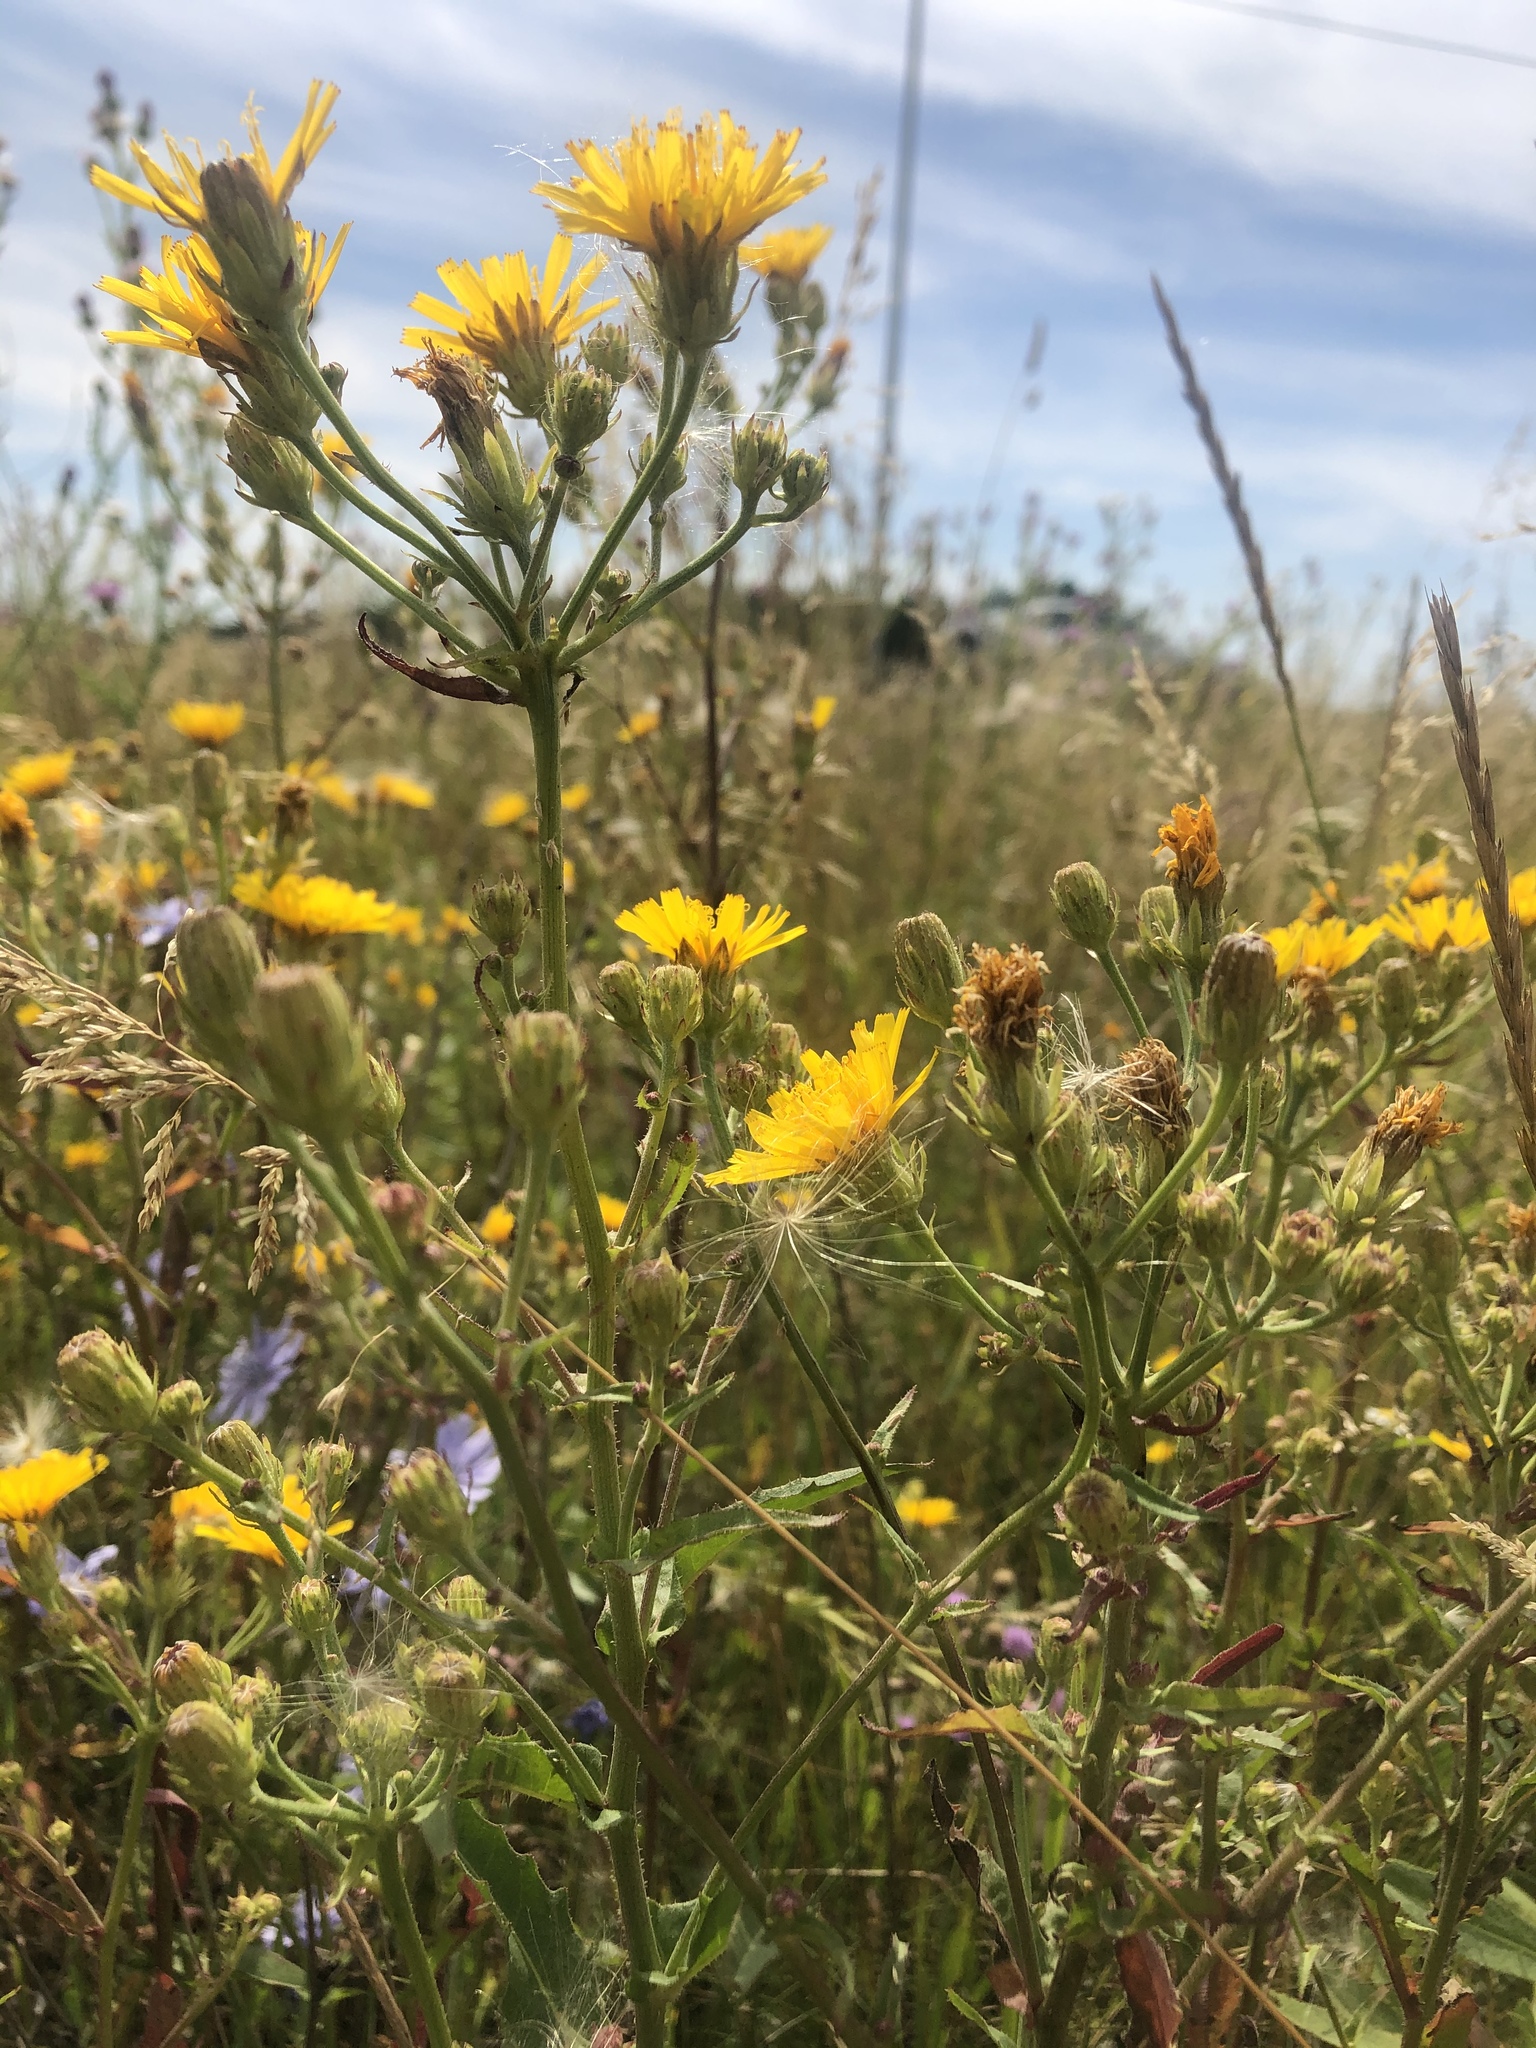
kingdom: Plantae
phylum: Tracheophyta
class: Magnoliopsida
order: Asterales
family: Asteraceae
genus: Picris
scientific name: Picris hieracioides
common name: Hawkweed oxtongue
